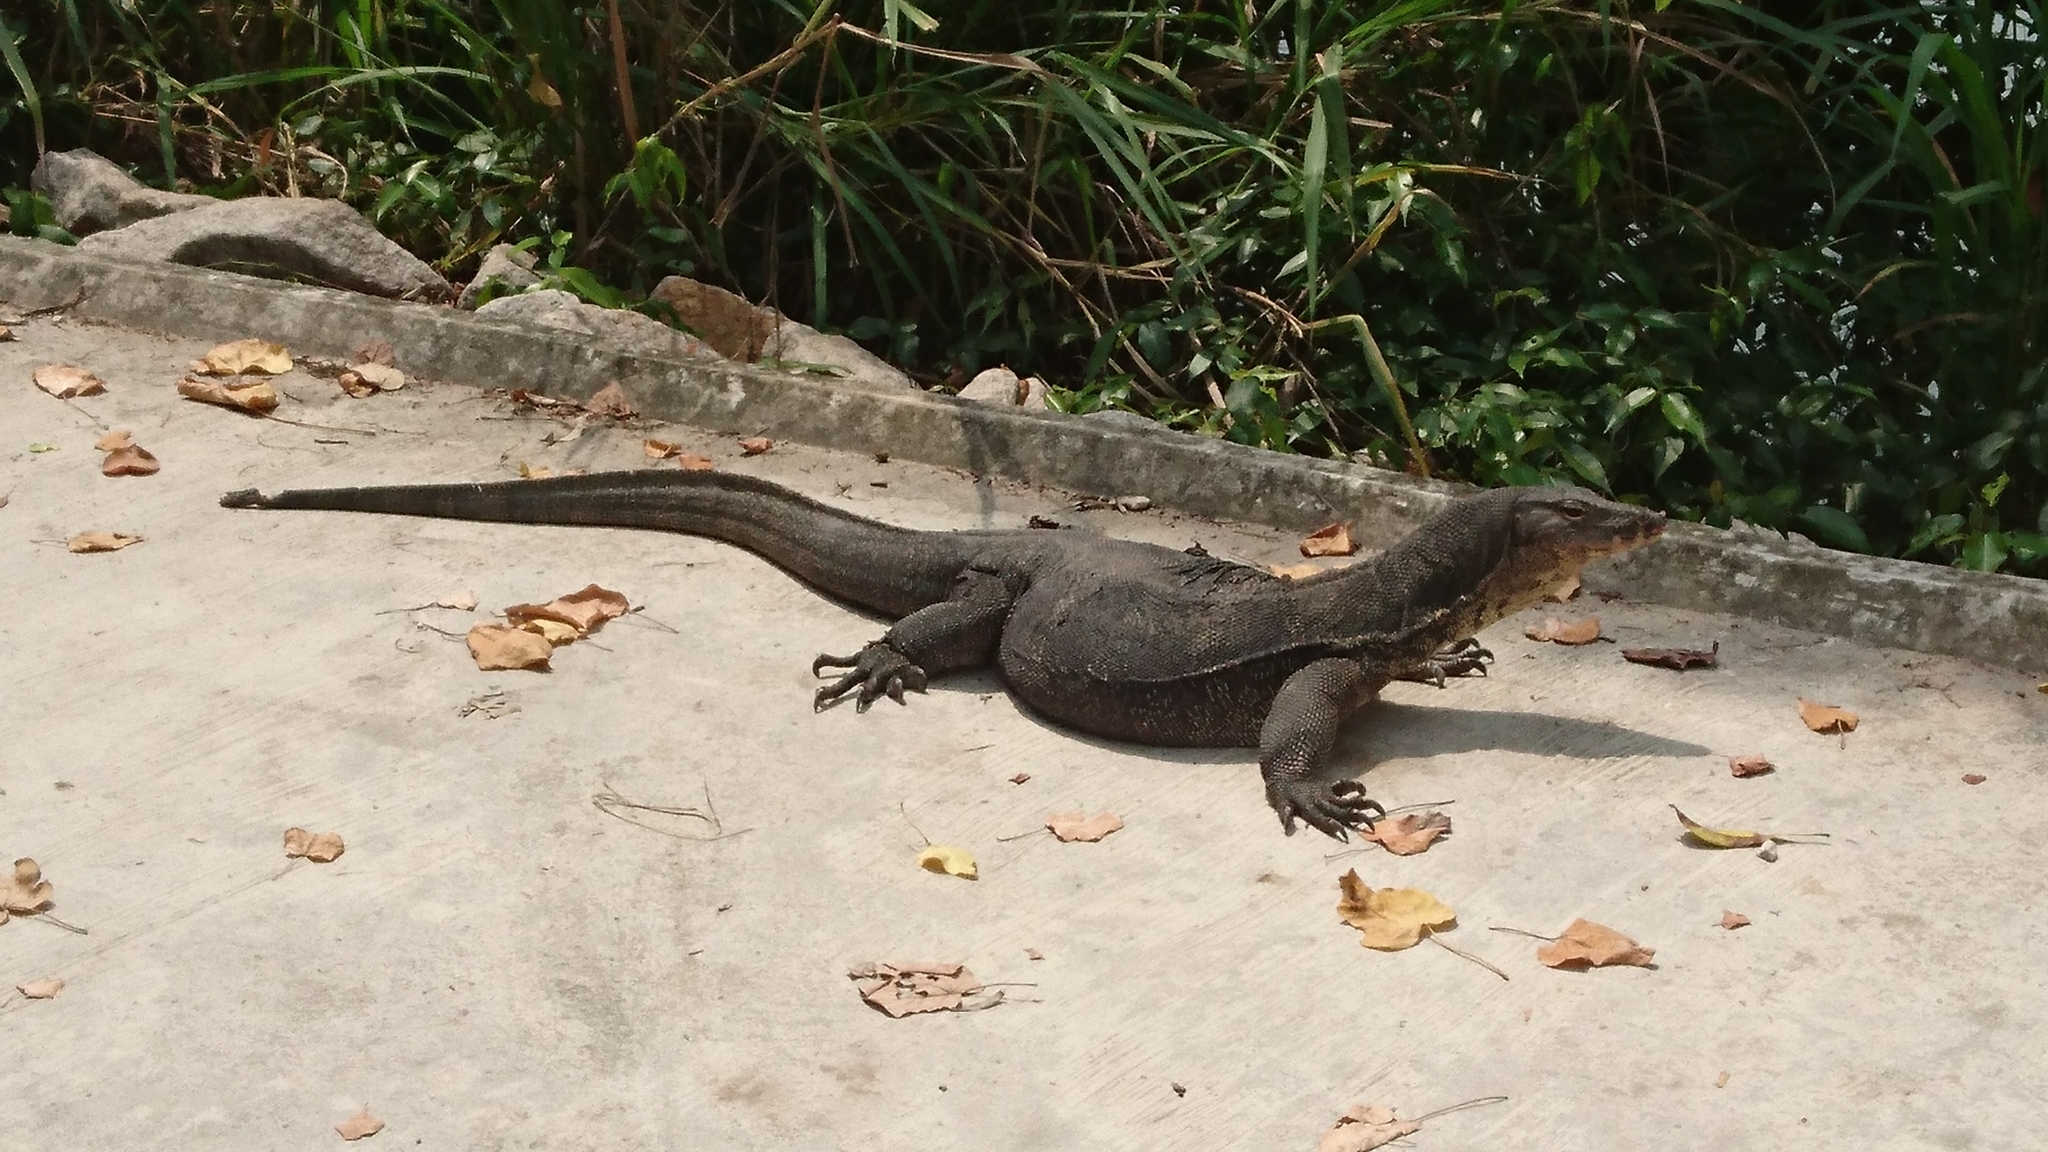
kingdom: Animalia
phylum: Chordata
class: Squamata
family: Varanidae
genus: Varanus
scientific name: Varanus salvator
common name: Common water monitor
